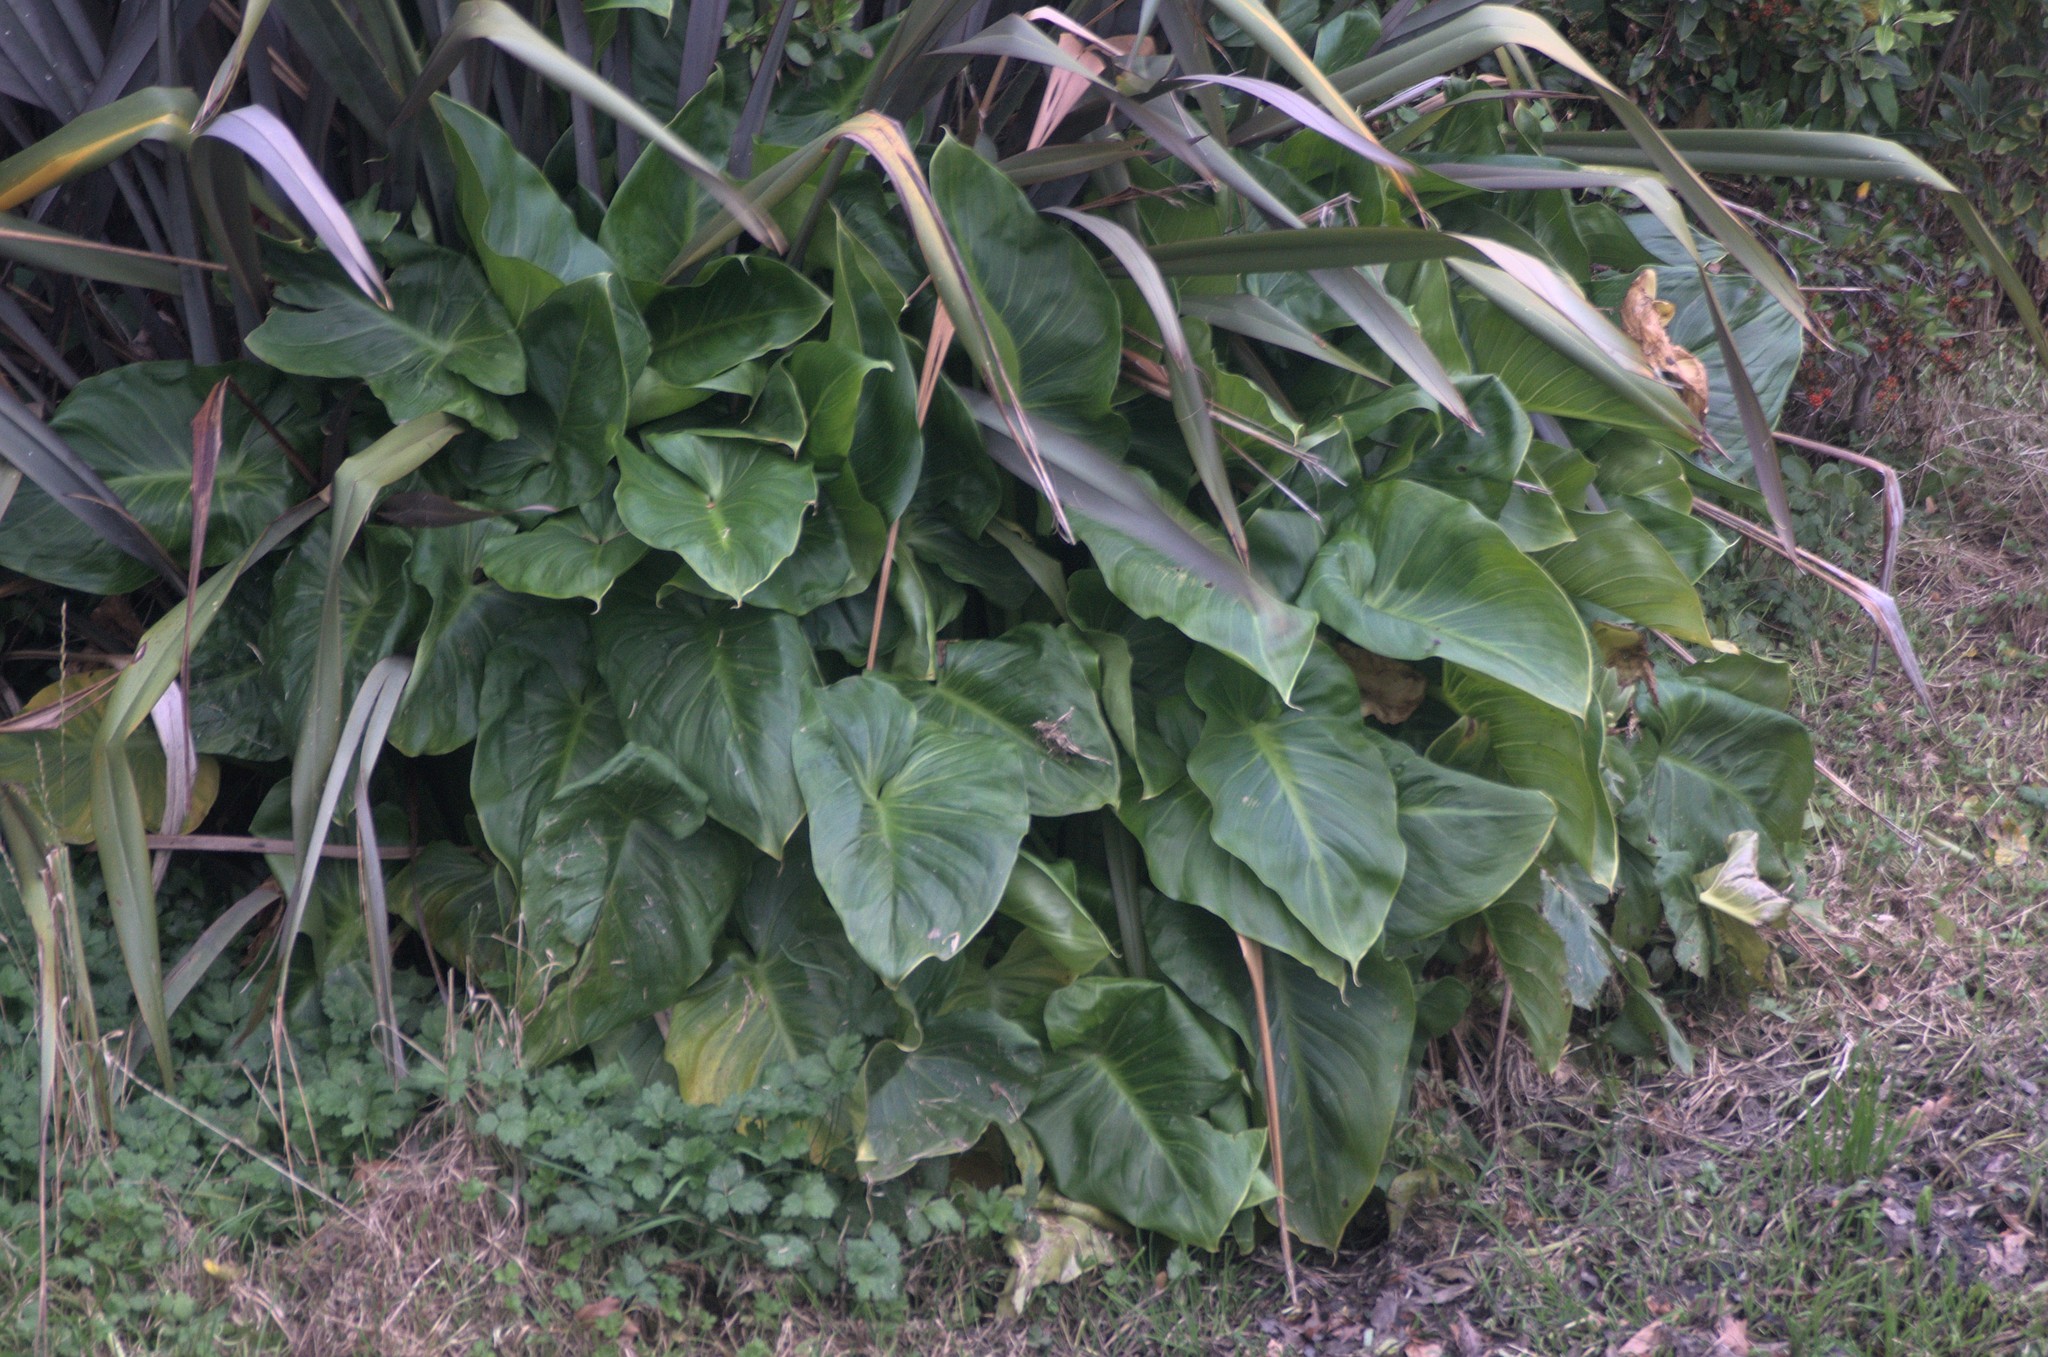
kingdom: Plantae
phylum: Tracheophyta
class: Liliopsida
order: Alismatales
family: Araceae
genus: Zantedeschia
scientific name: Zantedeschia aethiopica
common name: Altar-lily
